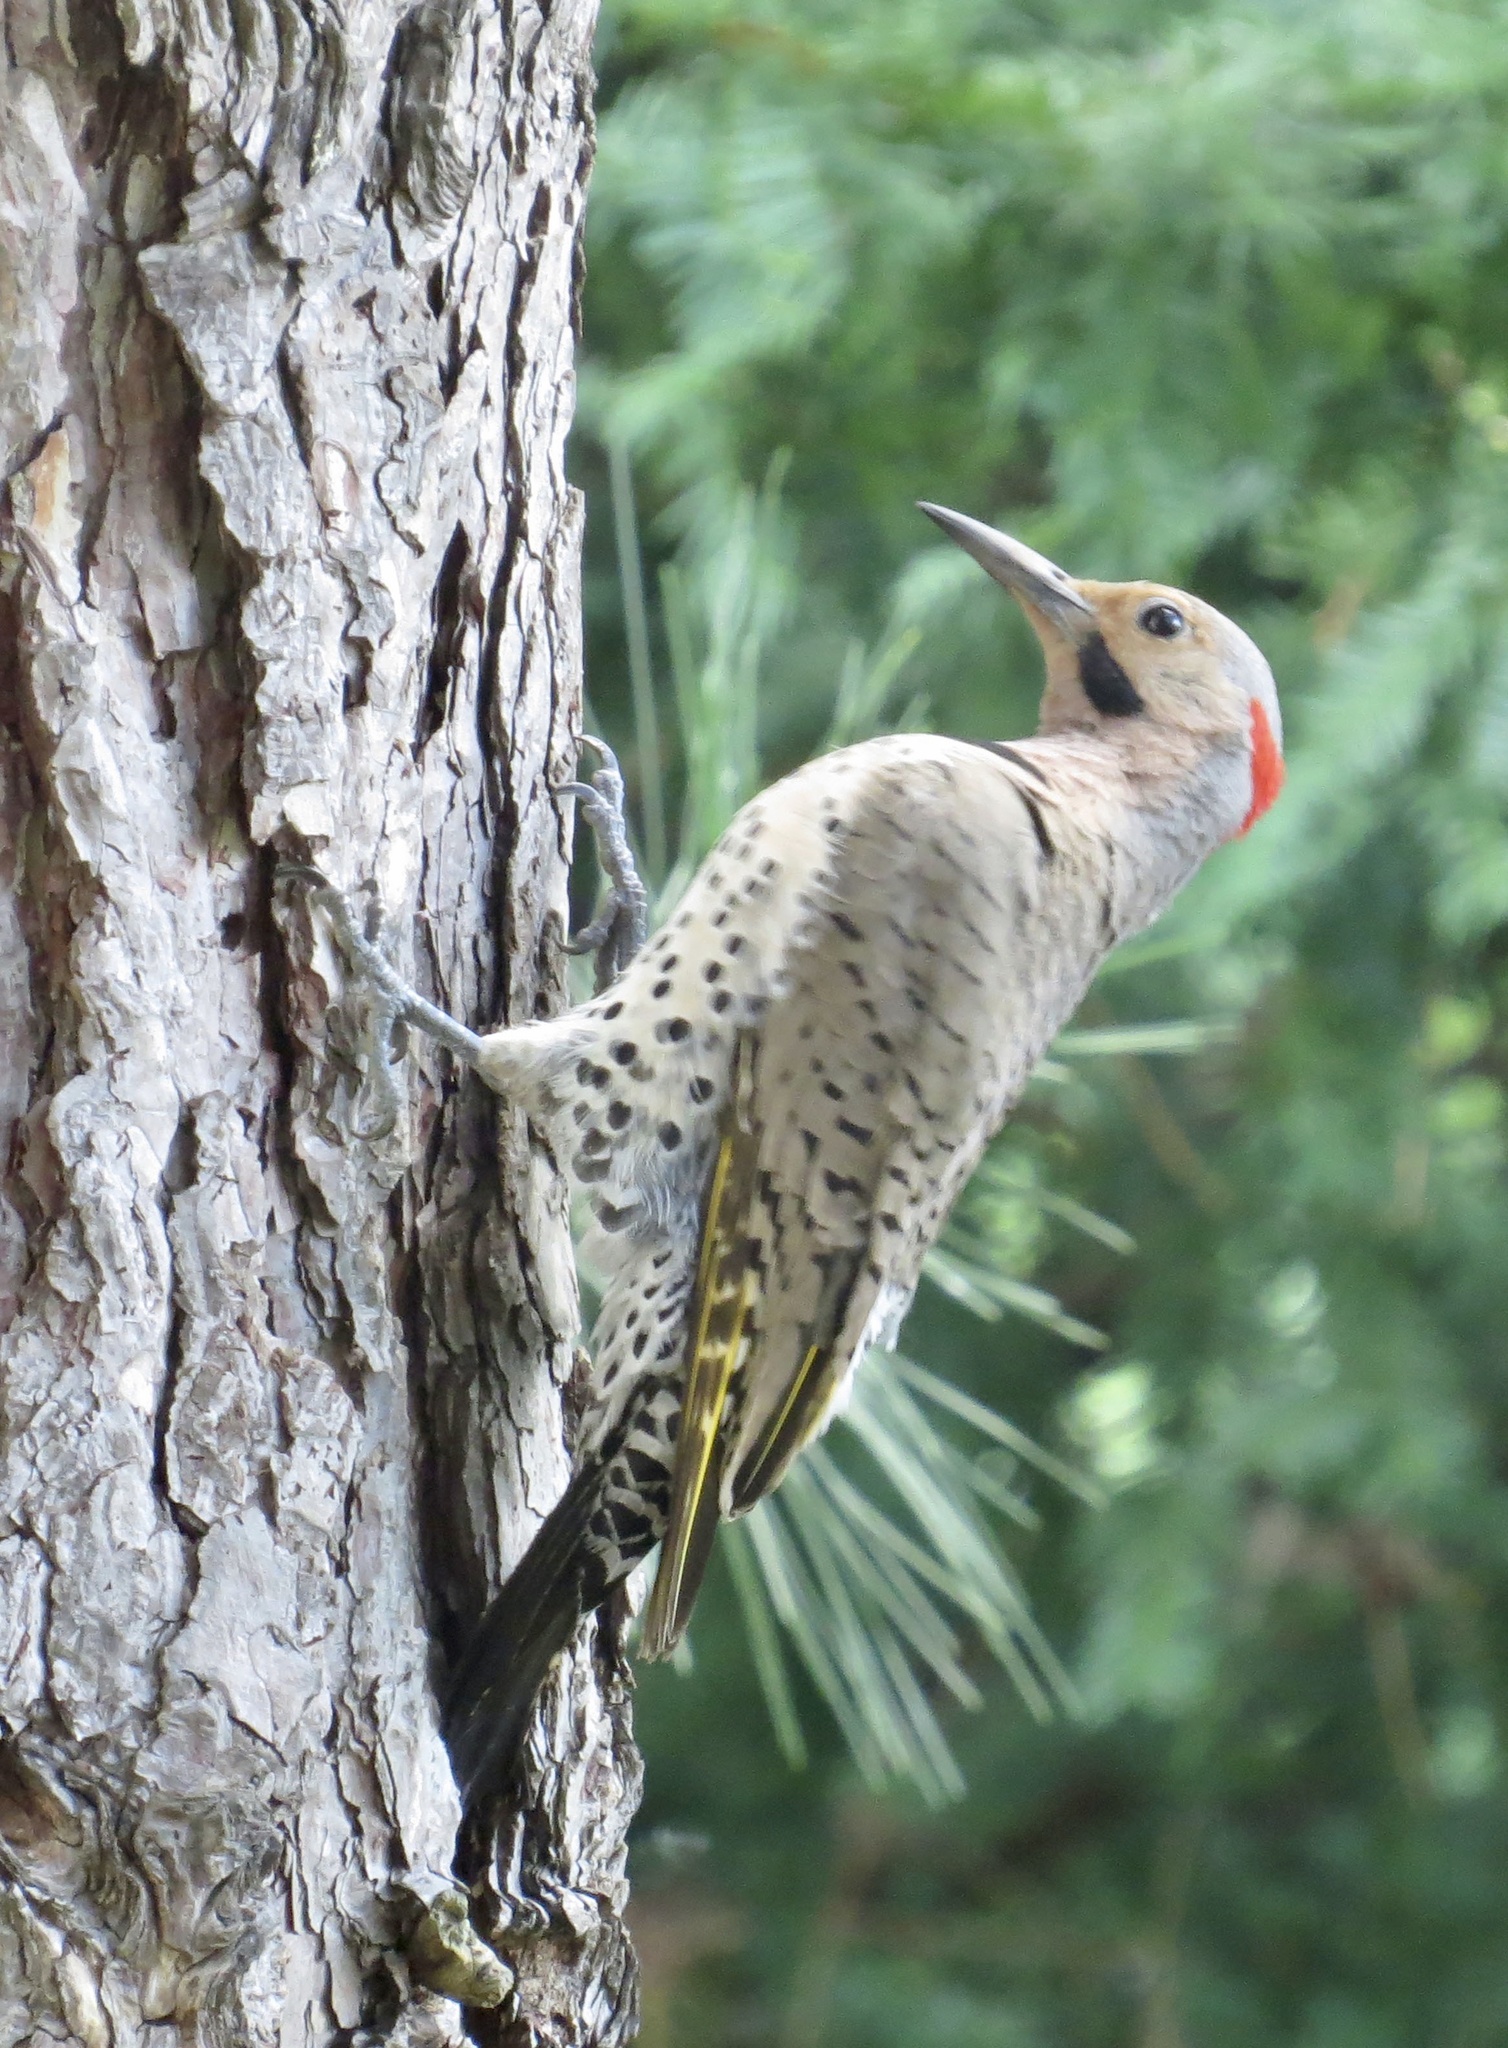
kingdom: Animalia
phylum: Chordata
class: Aves
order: Piciformes
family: Picidae
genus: Colaptes
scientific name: Colaptes auratus
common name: Northern flicker
